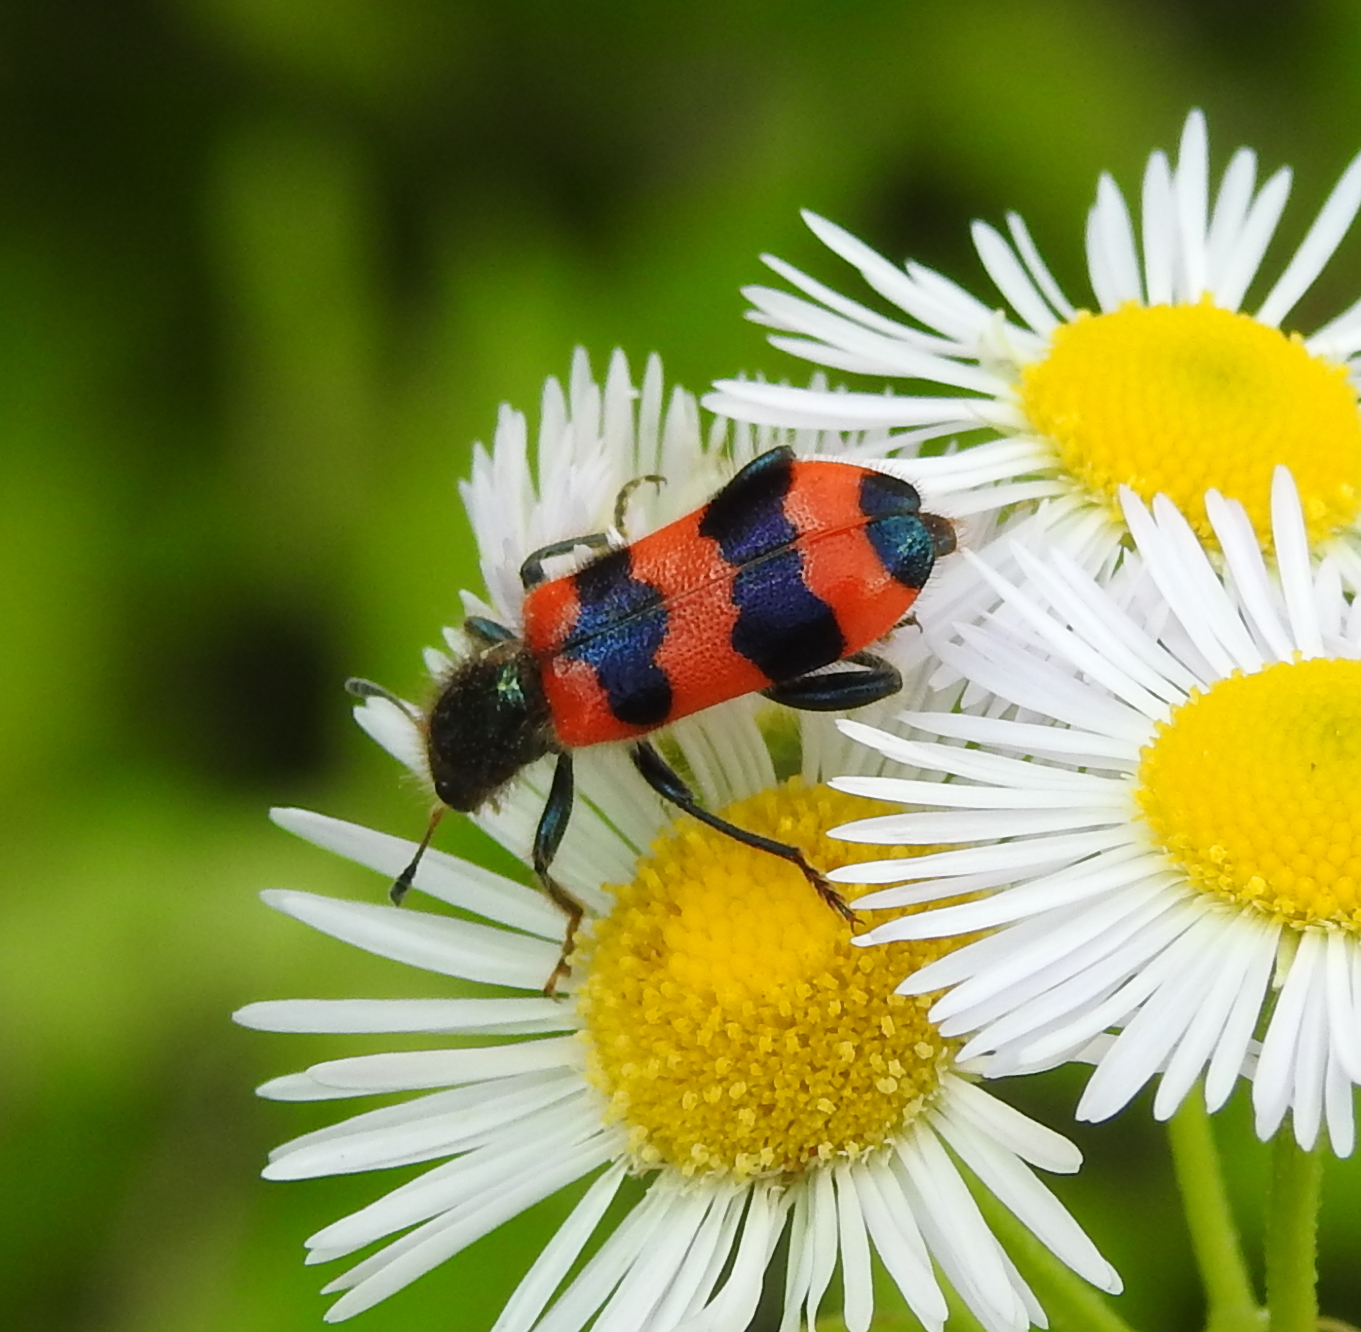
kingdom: Animalia
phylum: Arthropoda
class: Insecta
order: Coleoptera
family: Cleridae
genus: Trichodes
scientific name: Trichodes apiarius
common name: Bee-eating beetle
